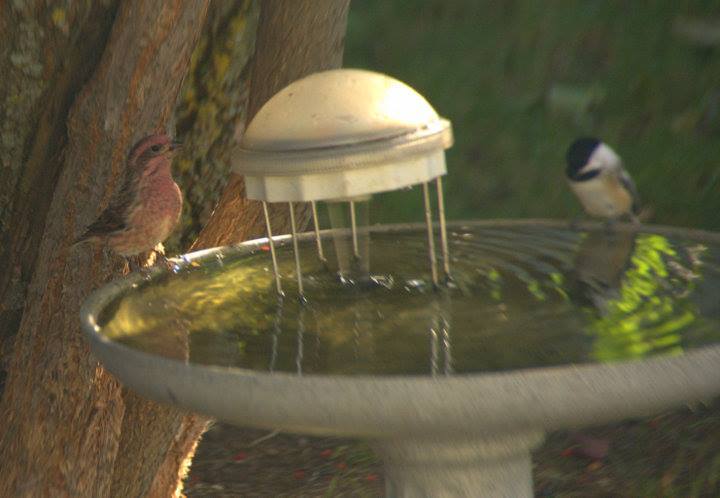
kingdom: Animalia
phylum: Chordata
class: Aves
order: Passeriformes
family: Fringillidae
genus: Haemorhous
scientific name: Haemorhous purpureus
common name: Purple finch
